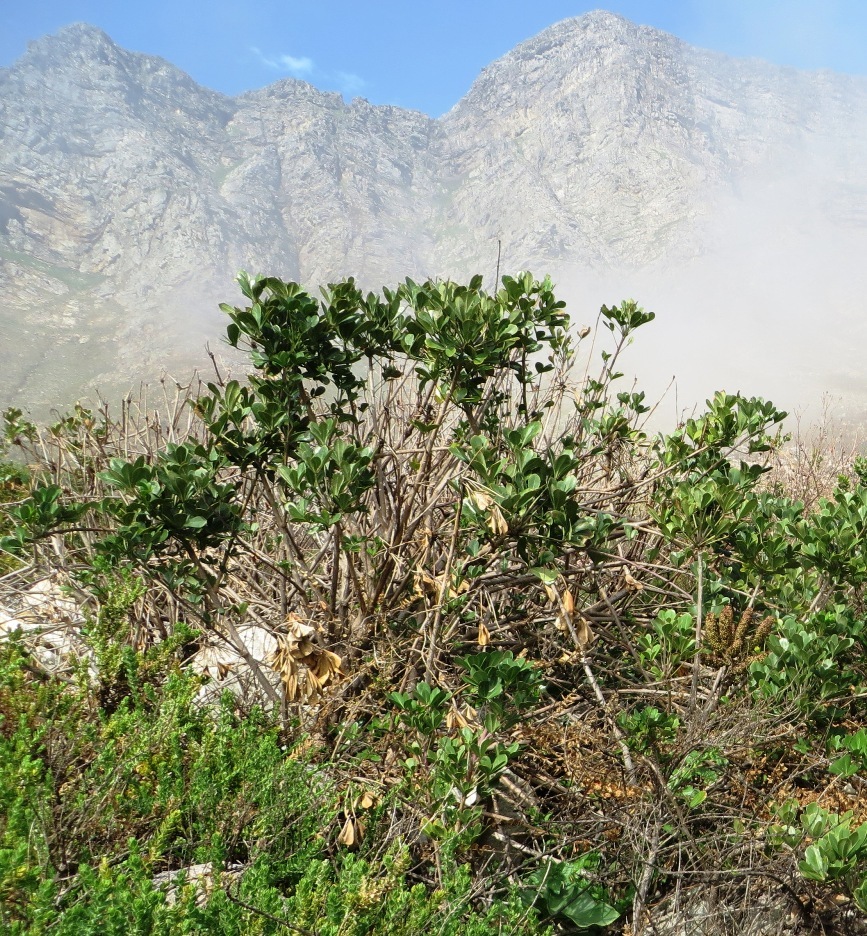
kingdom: Plantae
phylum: Tracheophyta
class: Magnoliopsida
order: Apiales
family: Araliaceae
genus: Cussonia
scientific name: Cussonia thyrsiflora
